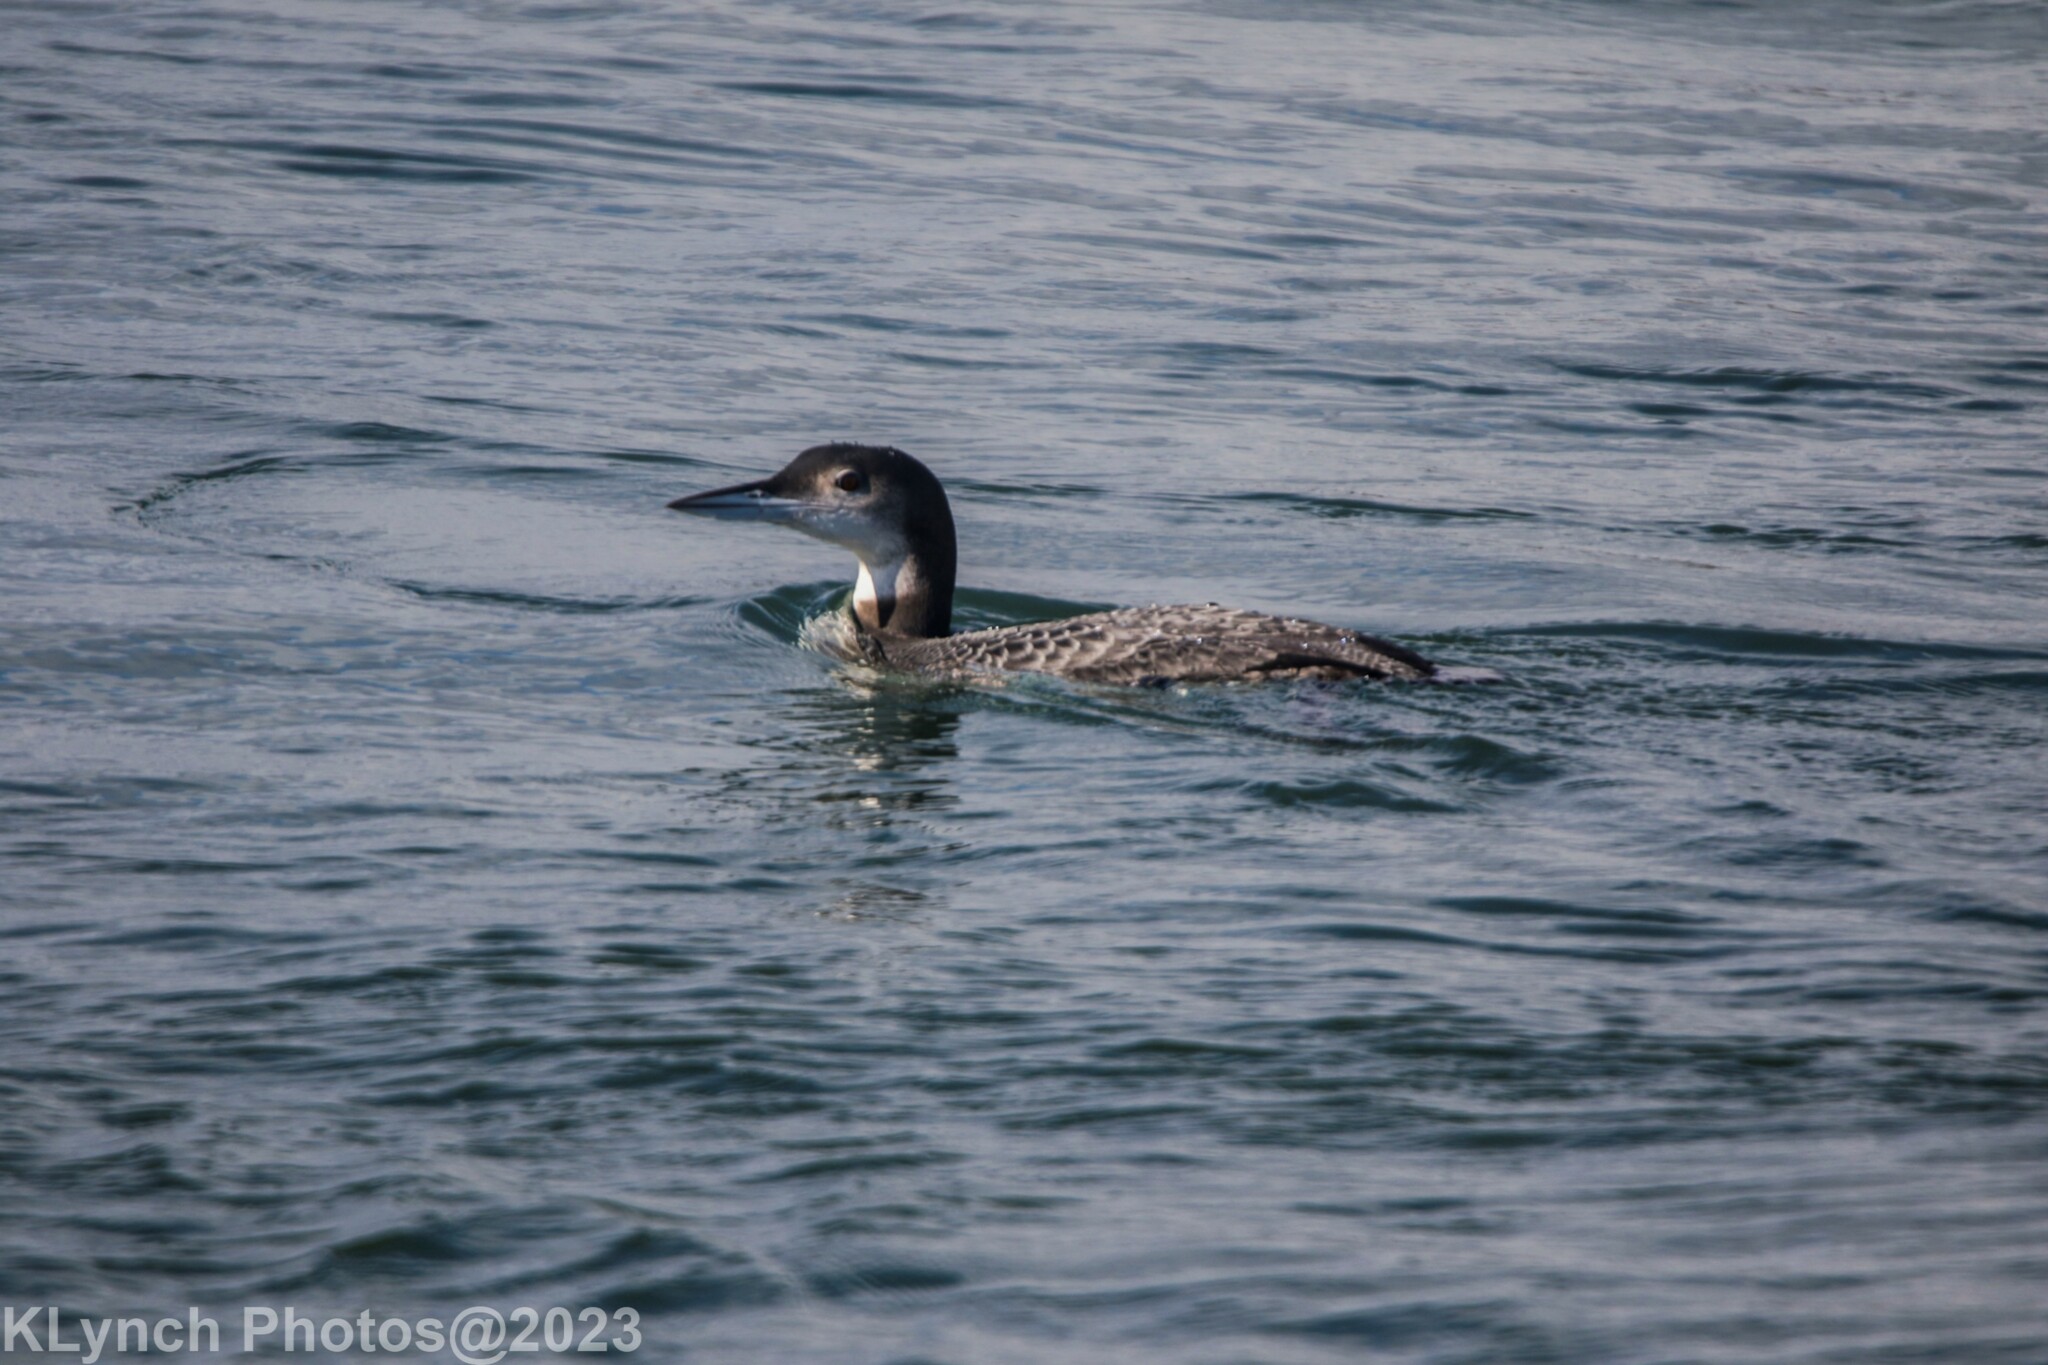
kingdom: Animalia
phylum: Chordata
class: Aves
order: Gaviiformes
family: Gaviidae
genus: Gavia
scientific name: Gavia immer
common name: Common loon
